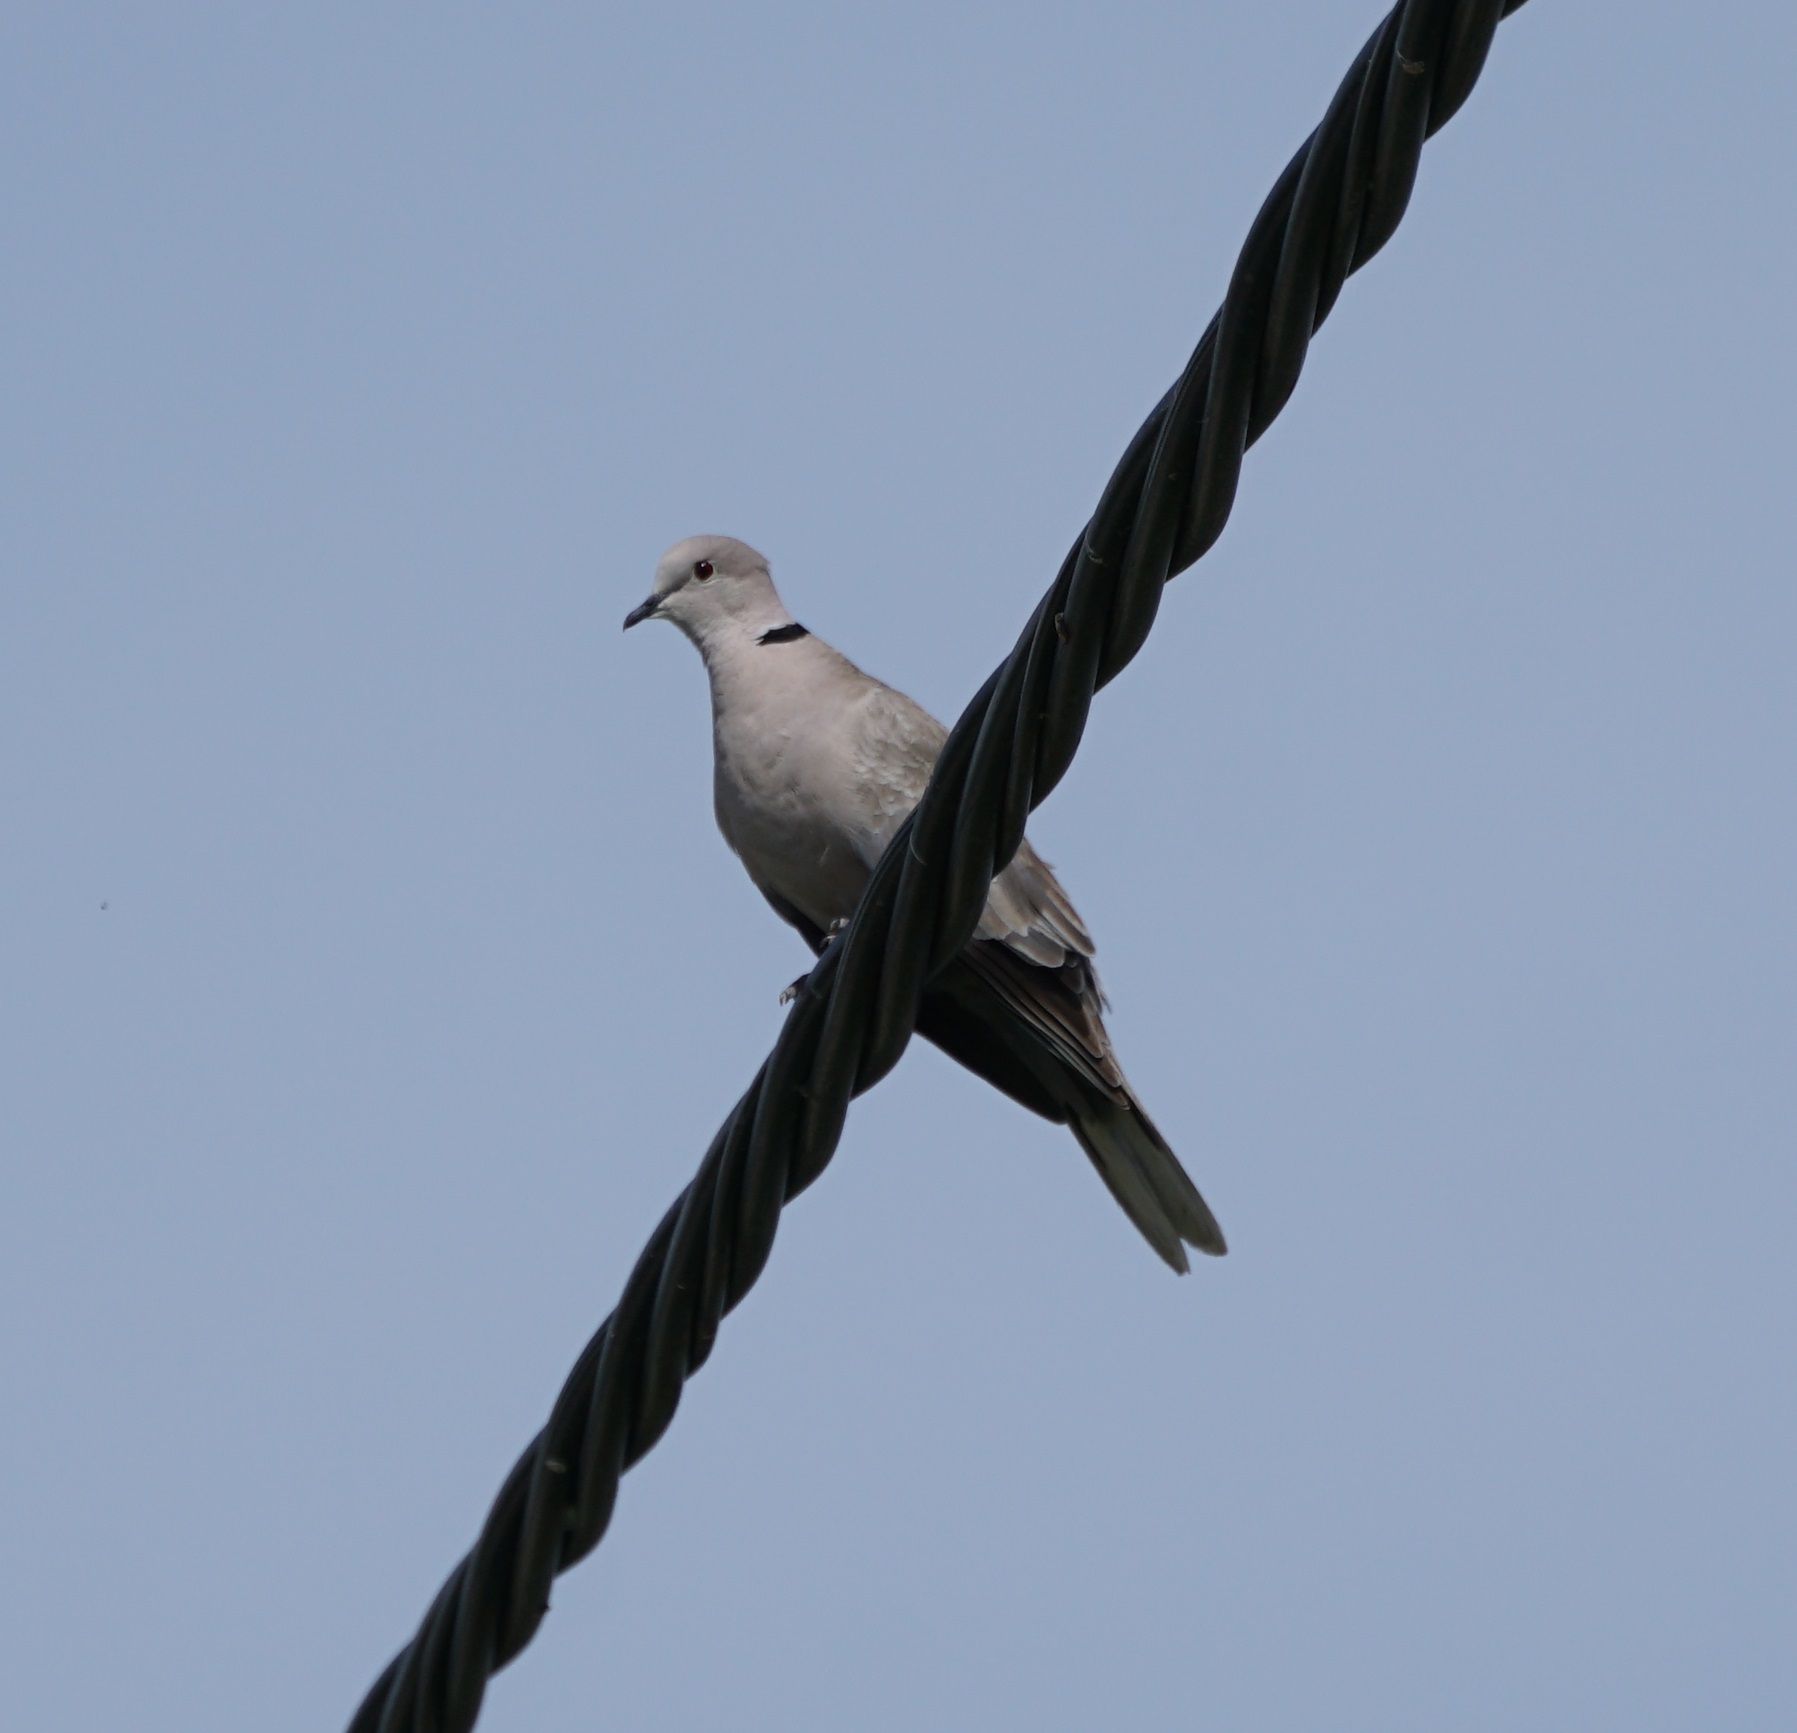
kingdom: Animalia
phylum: Chordata
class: Aves
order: Columbiformes
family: Columbidae
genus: Streptopelia
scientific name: Streptopelia decaocto
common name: Eurasian collared dove
